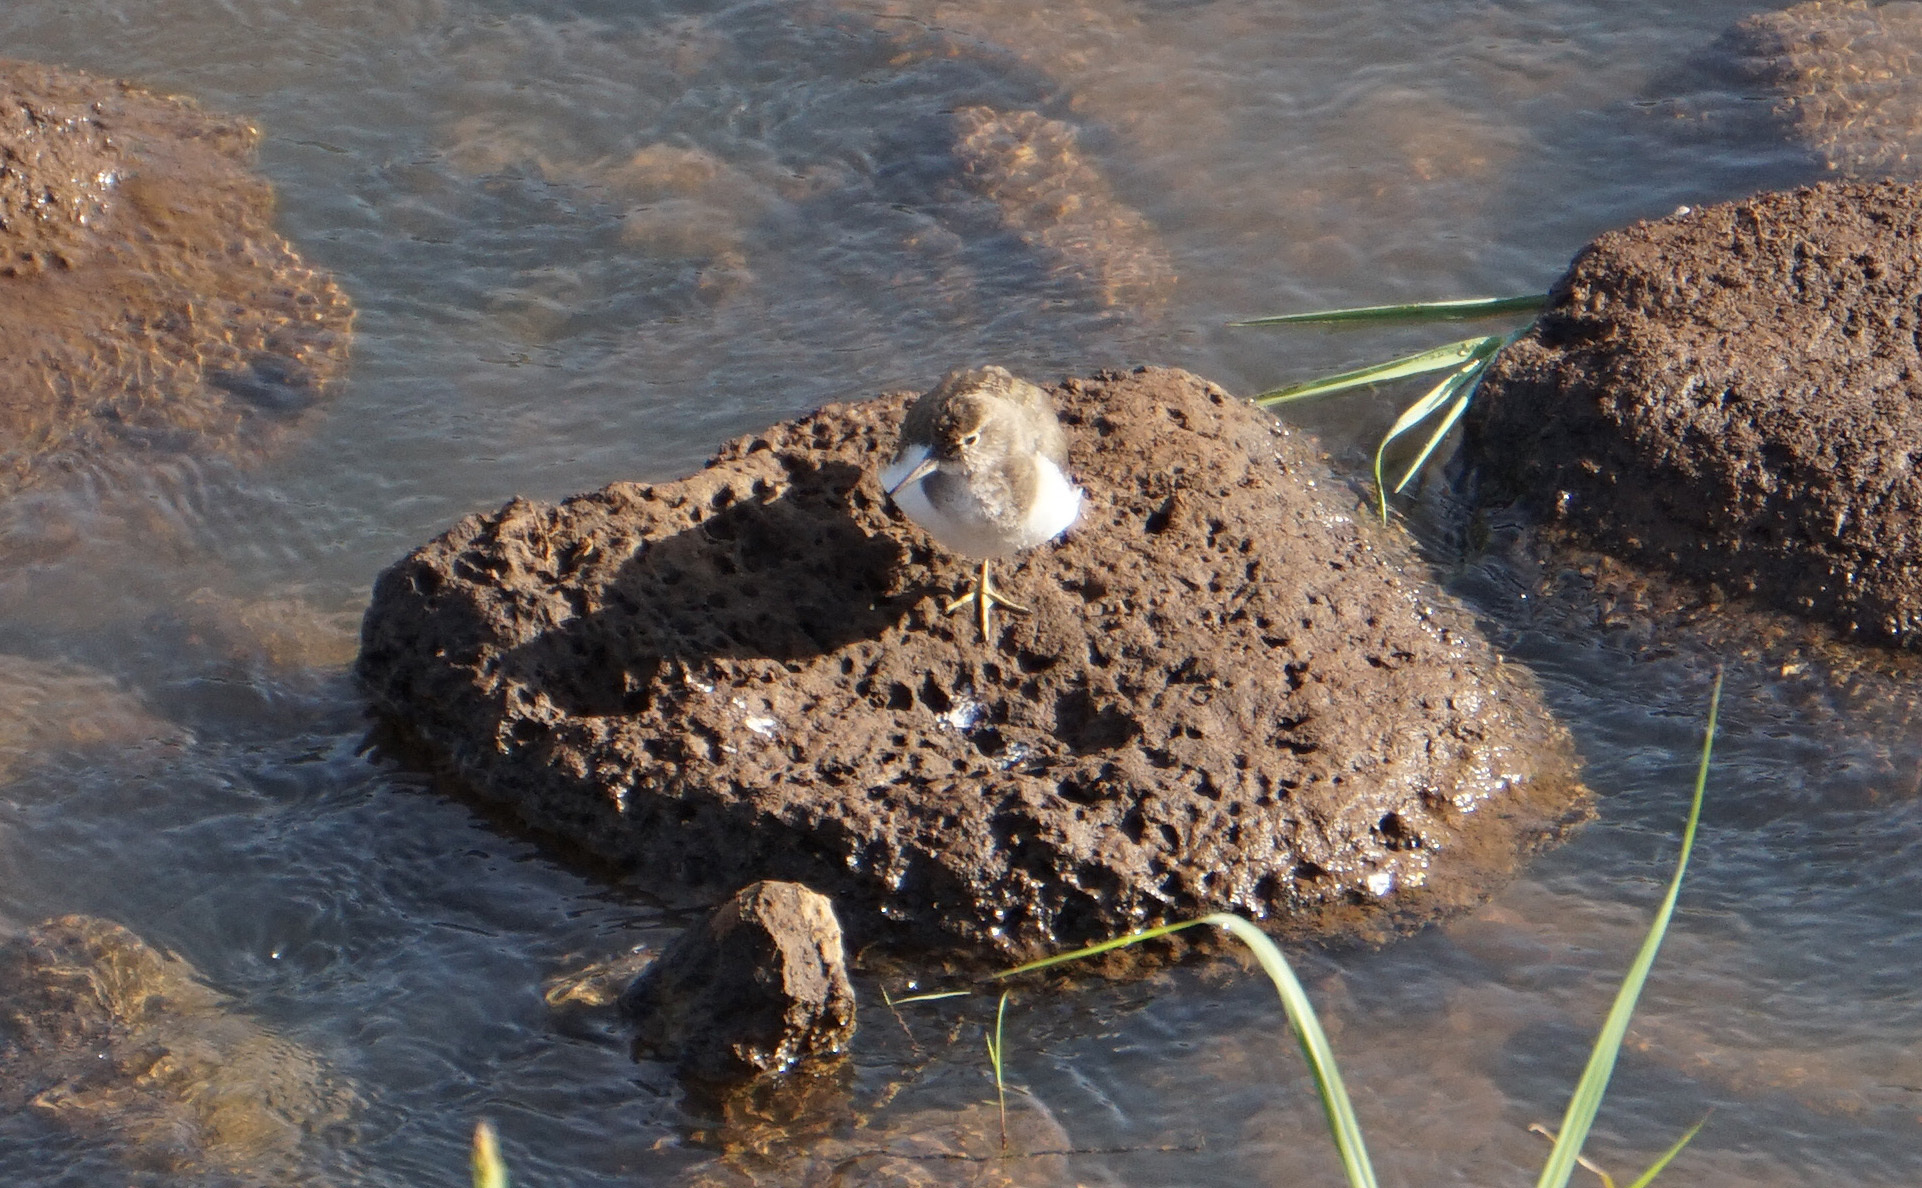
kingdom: Animalia
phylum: Chordata
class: Aves
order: Charadriiformes
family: Scolopacidae
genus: Actitis
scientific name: Actitis hypoleucos
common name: Common sandpiper
